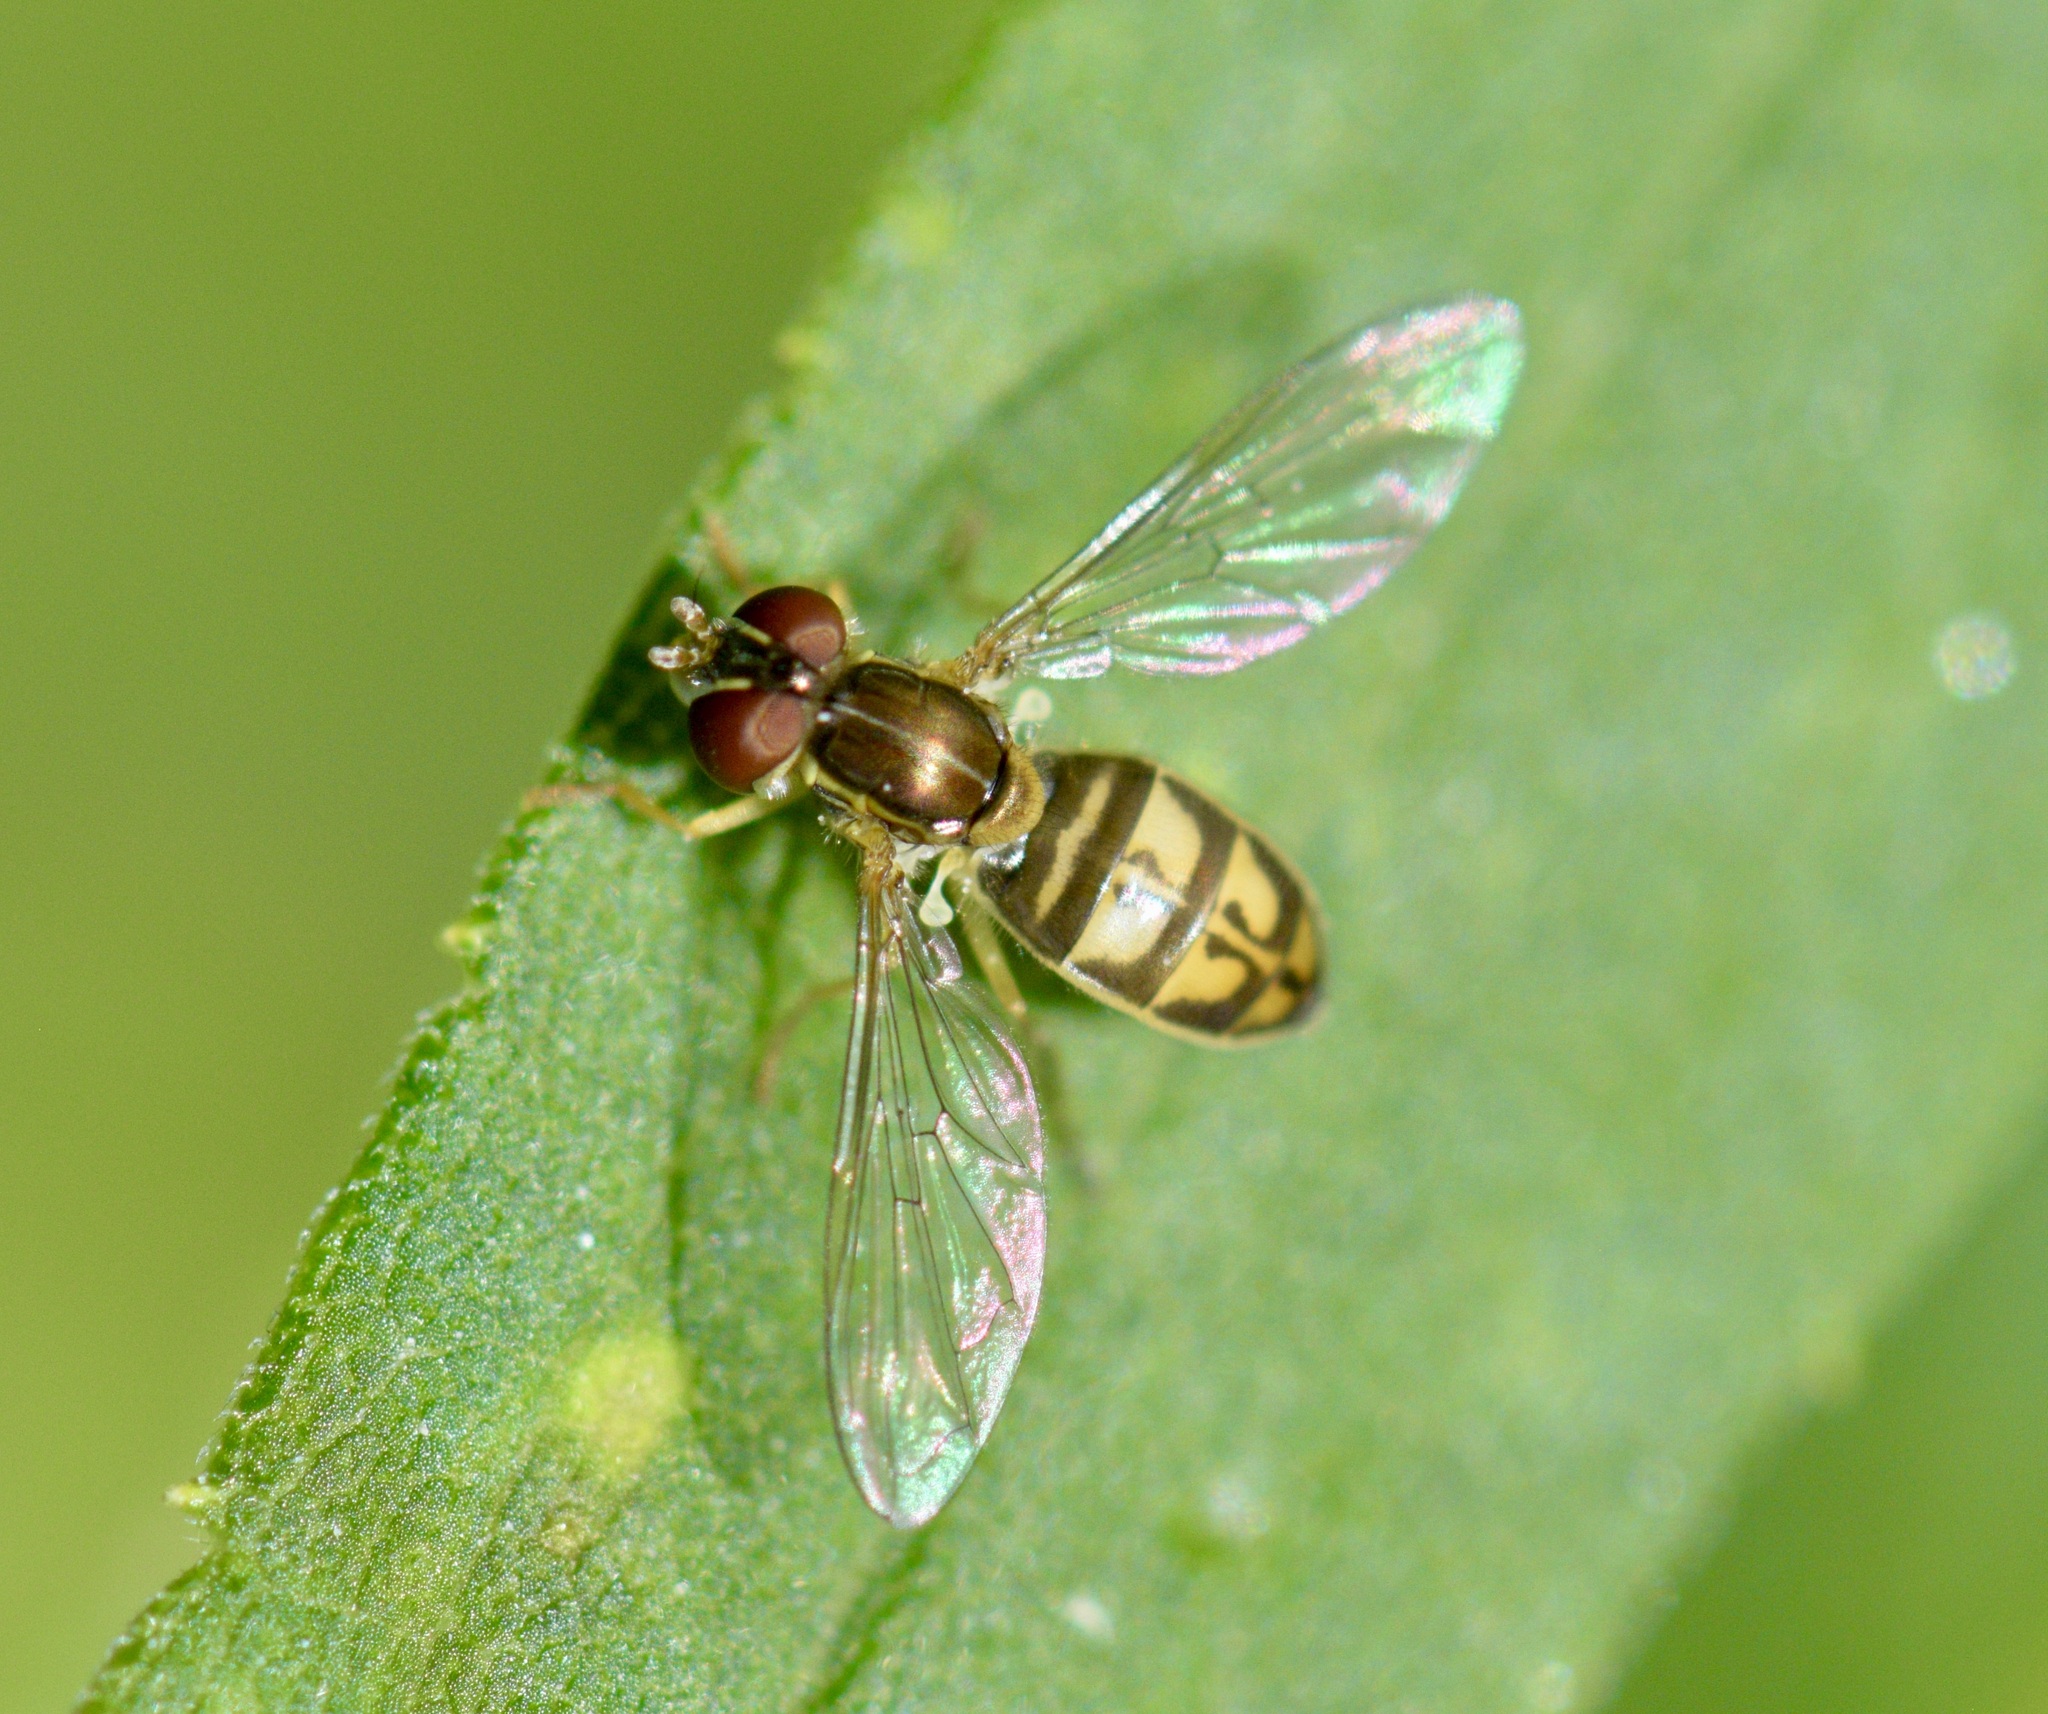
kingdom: Animalia
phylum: Arthropoda
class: Insecta
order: Diptera
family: Syrphidae
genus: Toxomerus
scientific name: Toxomerus marginatus
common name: Syrphid fly
